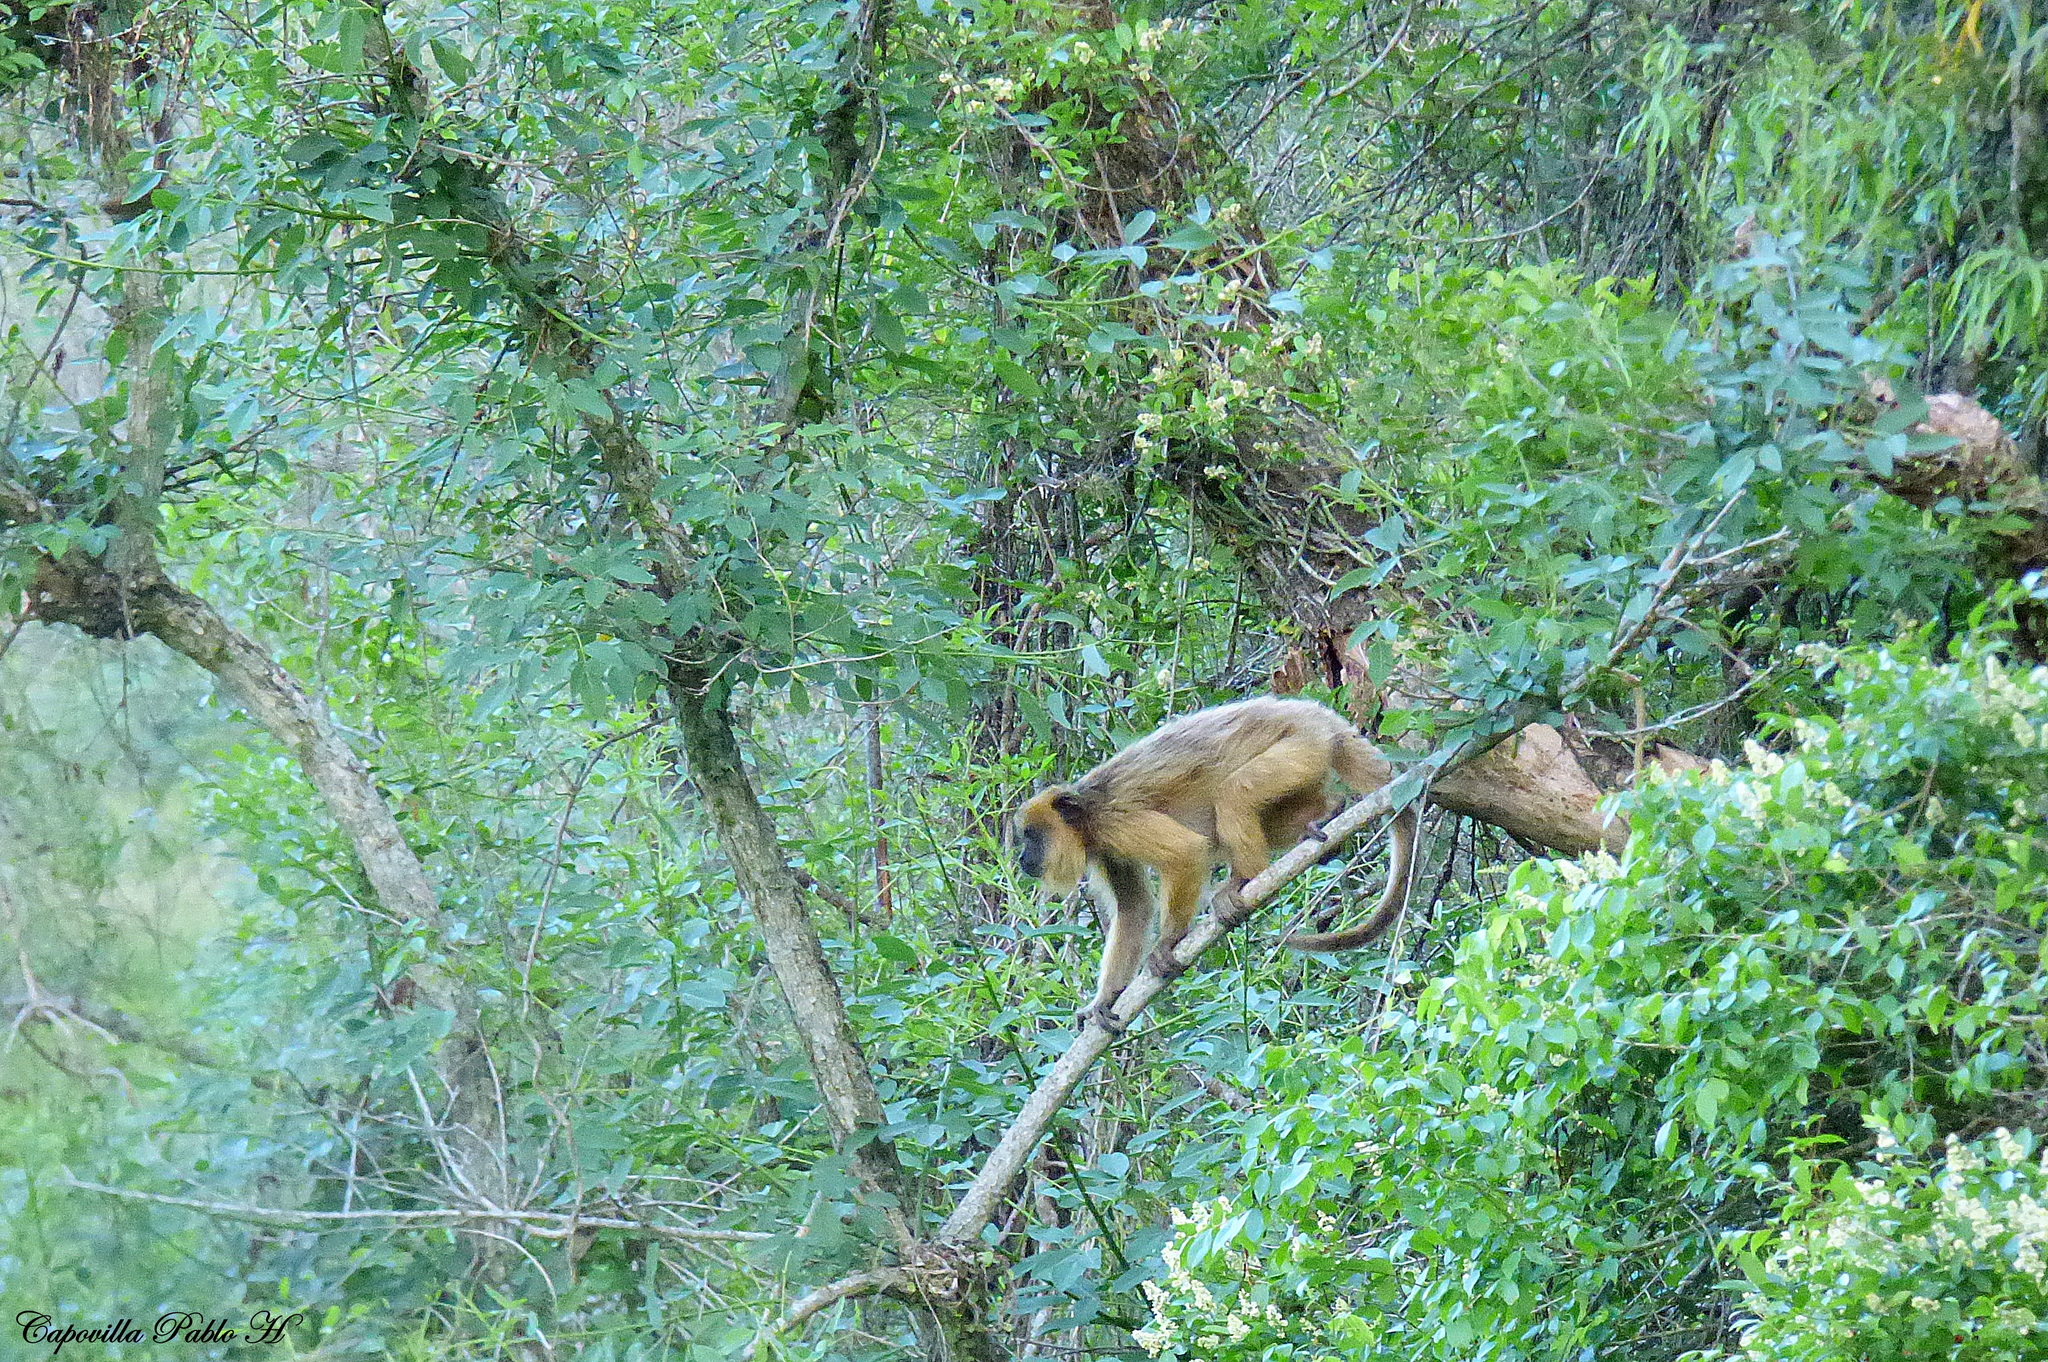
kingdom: Animalia
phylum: Chordata
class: Mammalia
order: Primates
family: Atelidae
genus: Alouatta
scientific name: Alouatta caraya
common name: Black howler
